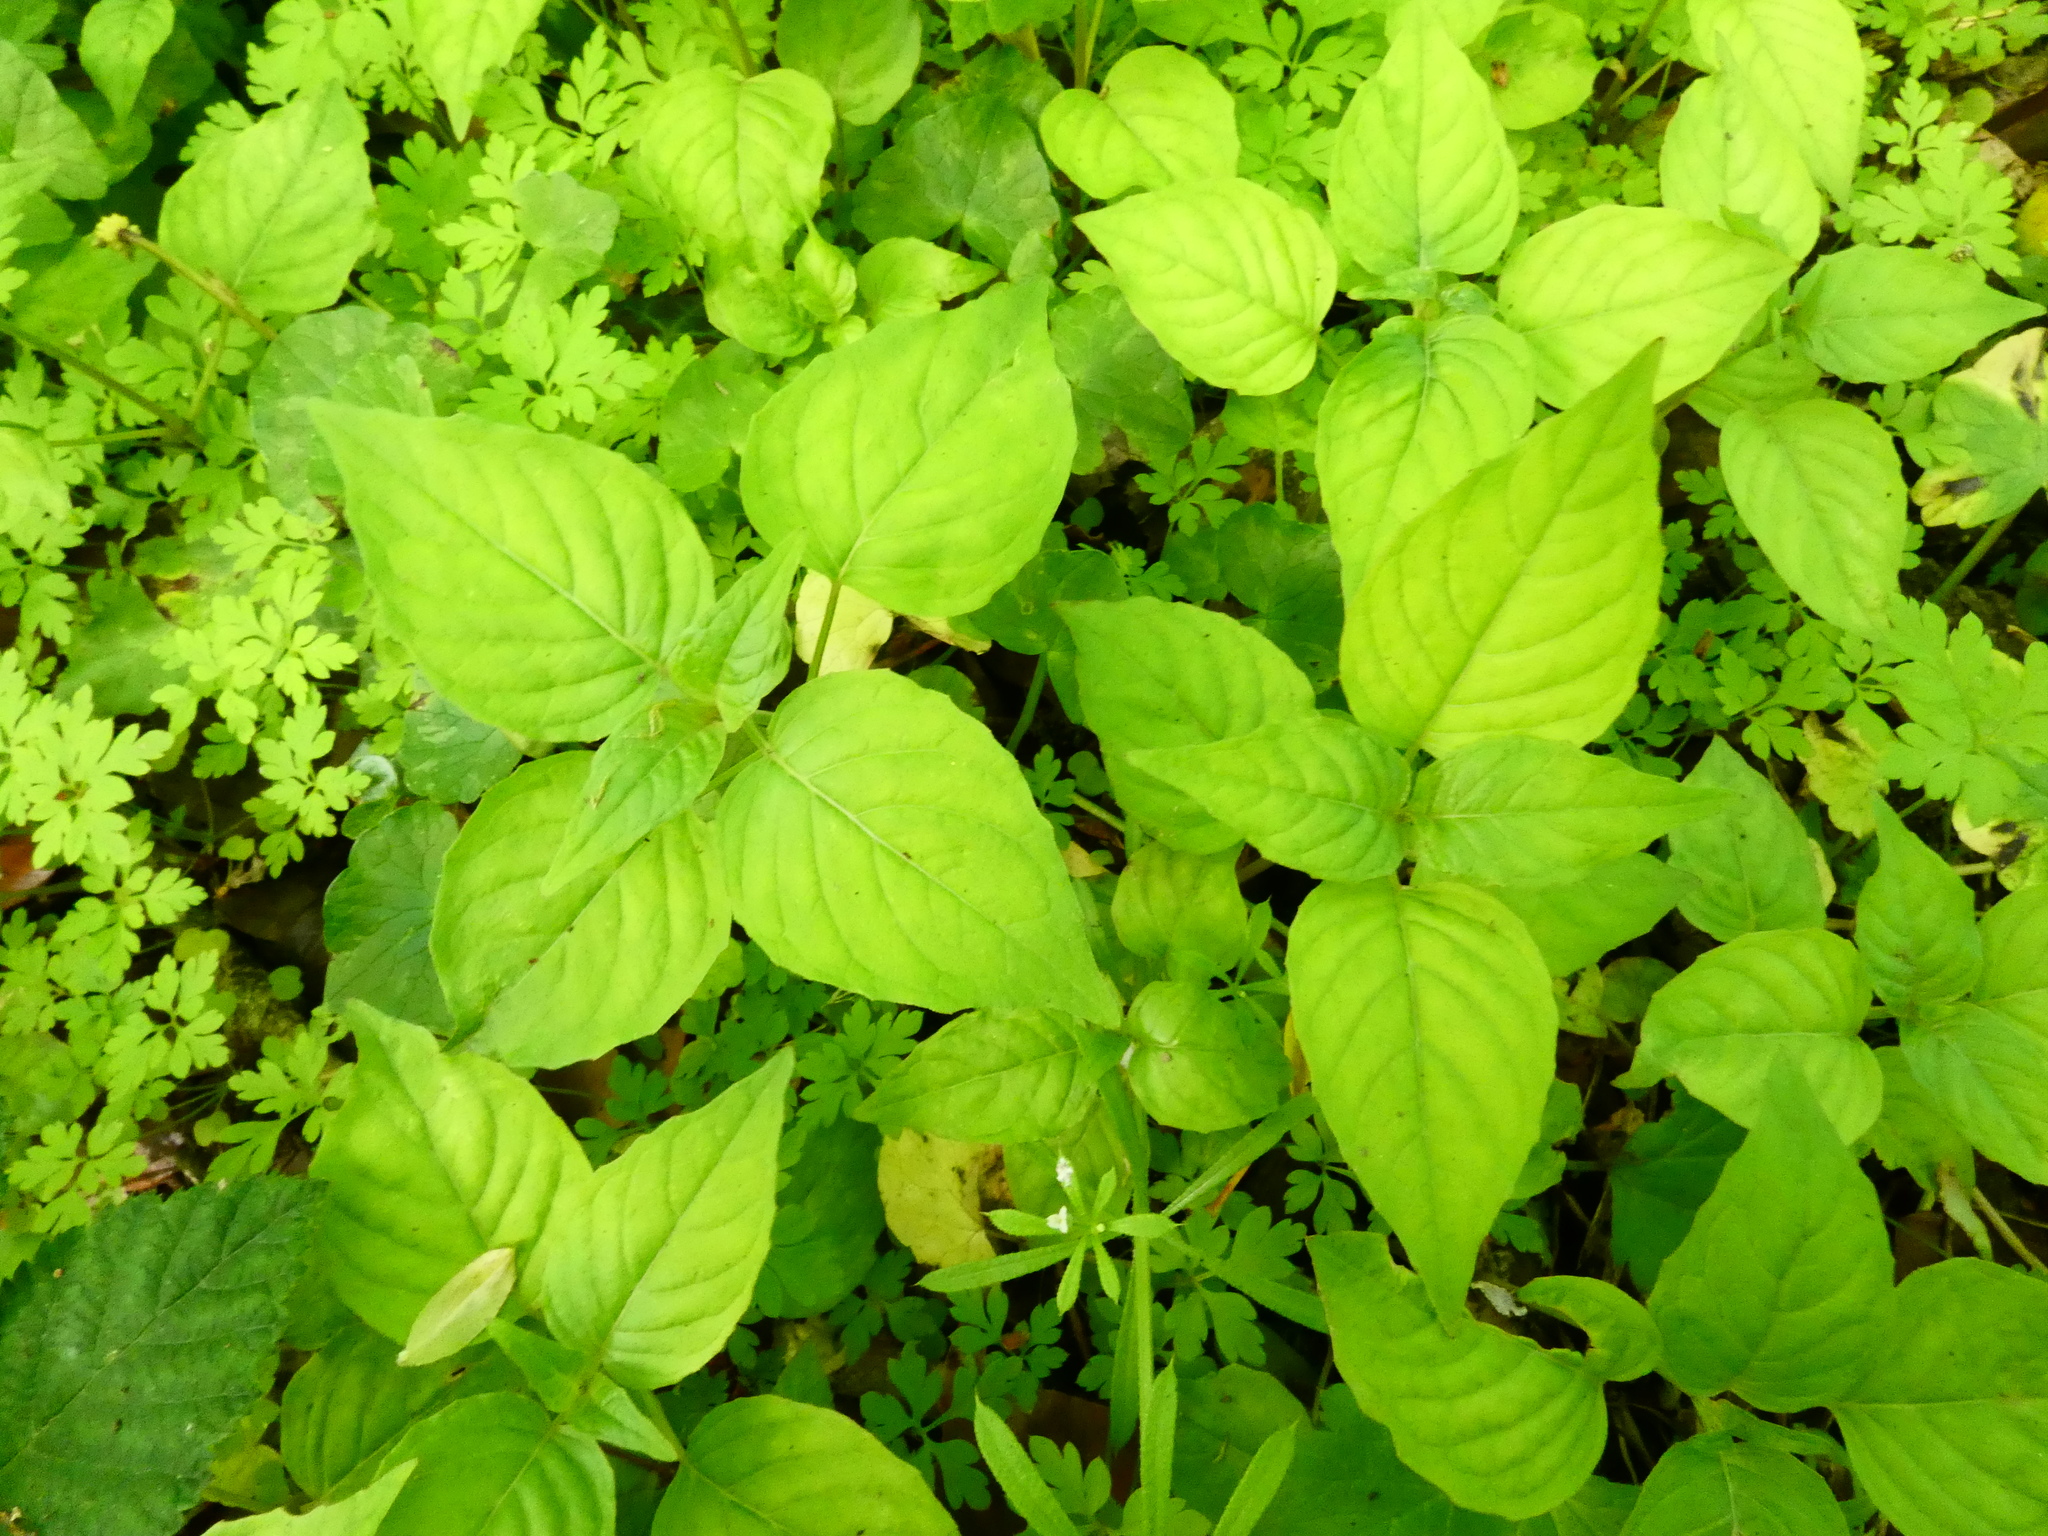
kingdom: Plantae
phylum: Tracheophyta
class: Magnoliopsida
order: Myrtales
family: Onagraceae
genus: Circaea
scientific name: Circaea lutetiana
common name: Enchanter's-nightshade
